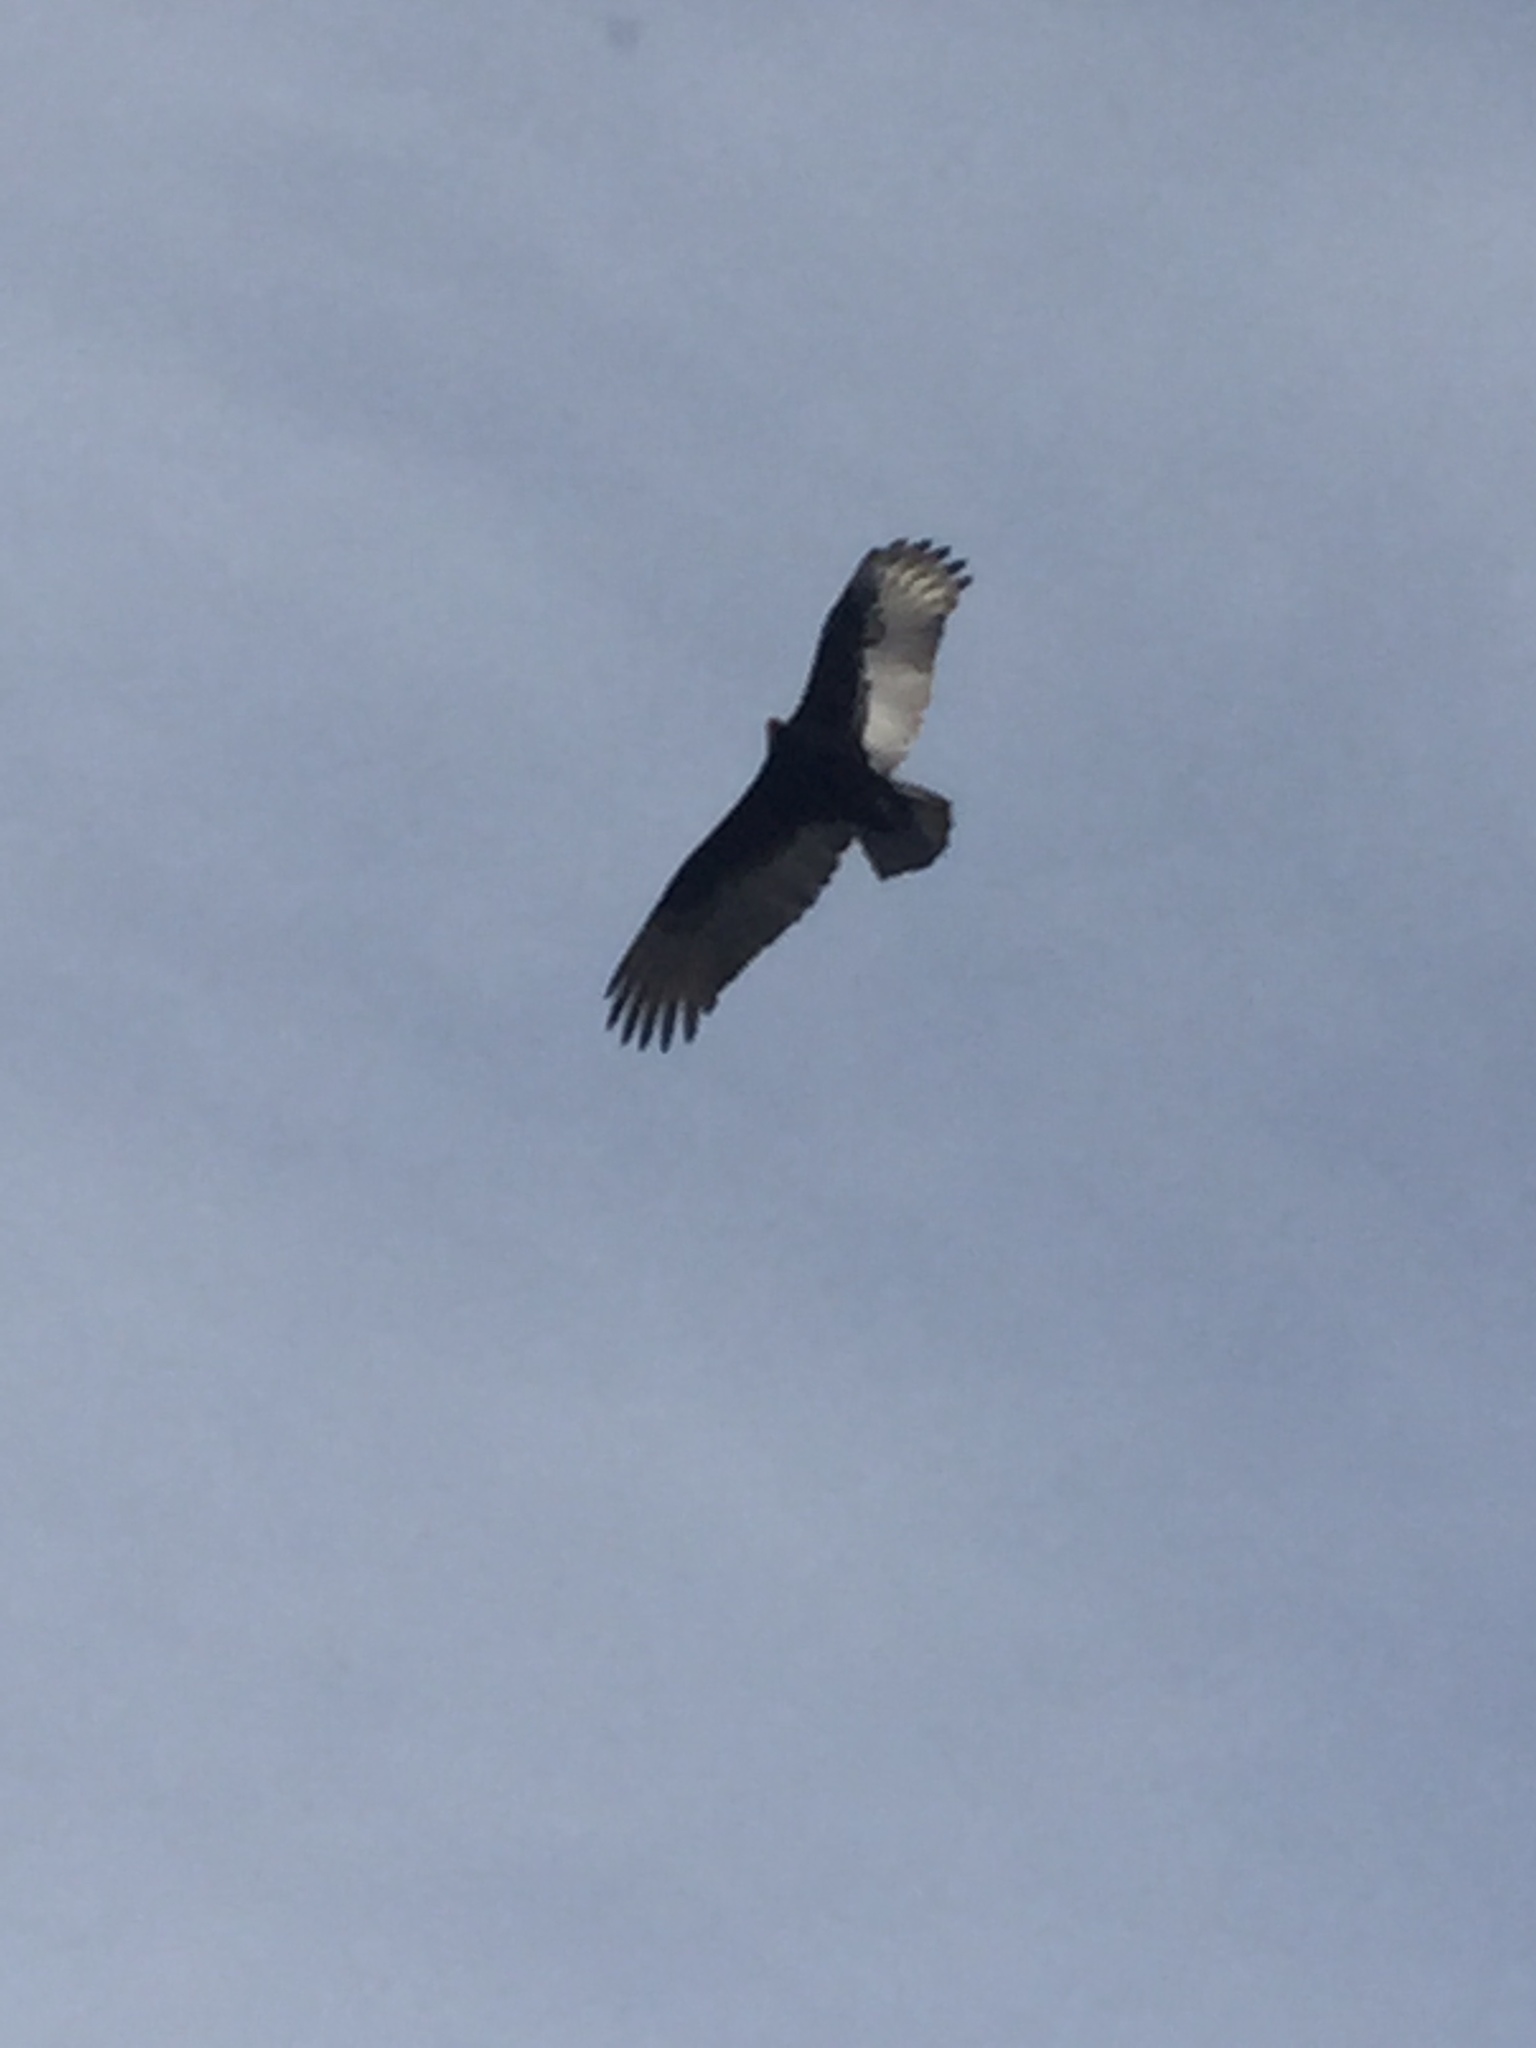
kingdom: Animalia
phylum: Chordata
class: Aves
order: Accipitriformes
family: Cathartidae
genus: Cathartes
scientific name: Cathartes aura
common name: Turkey vulture
